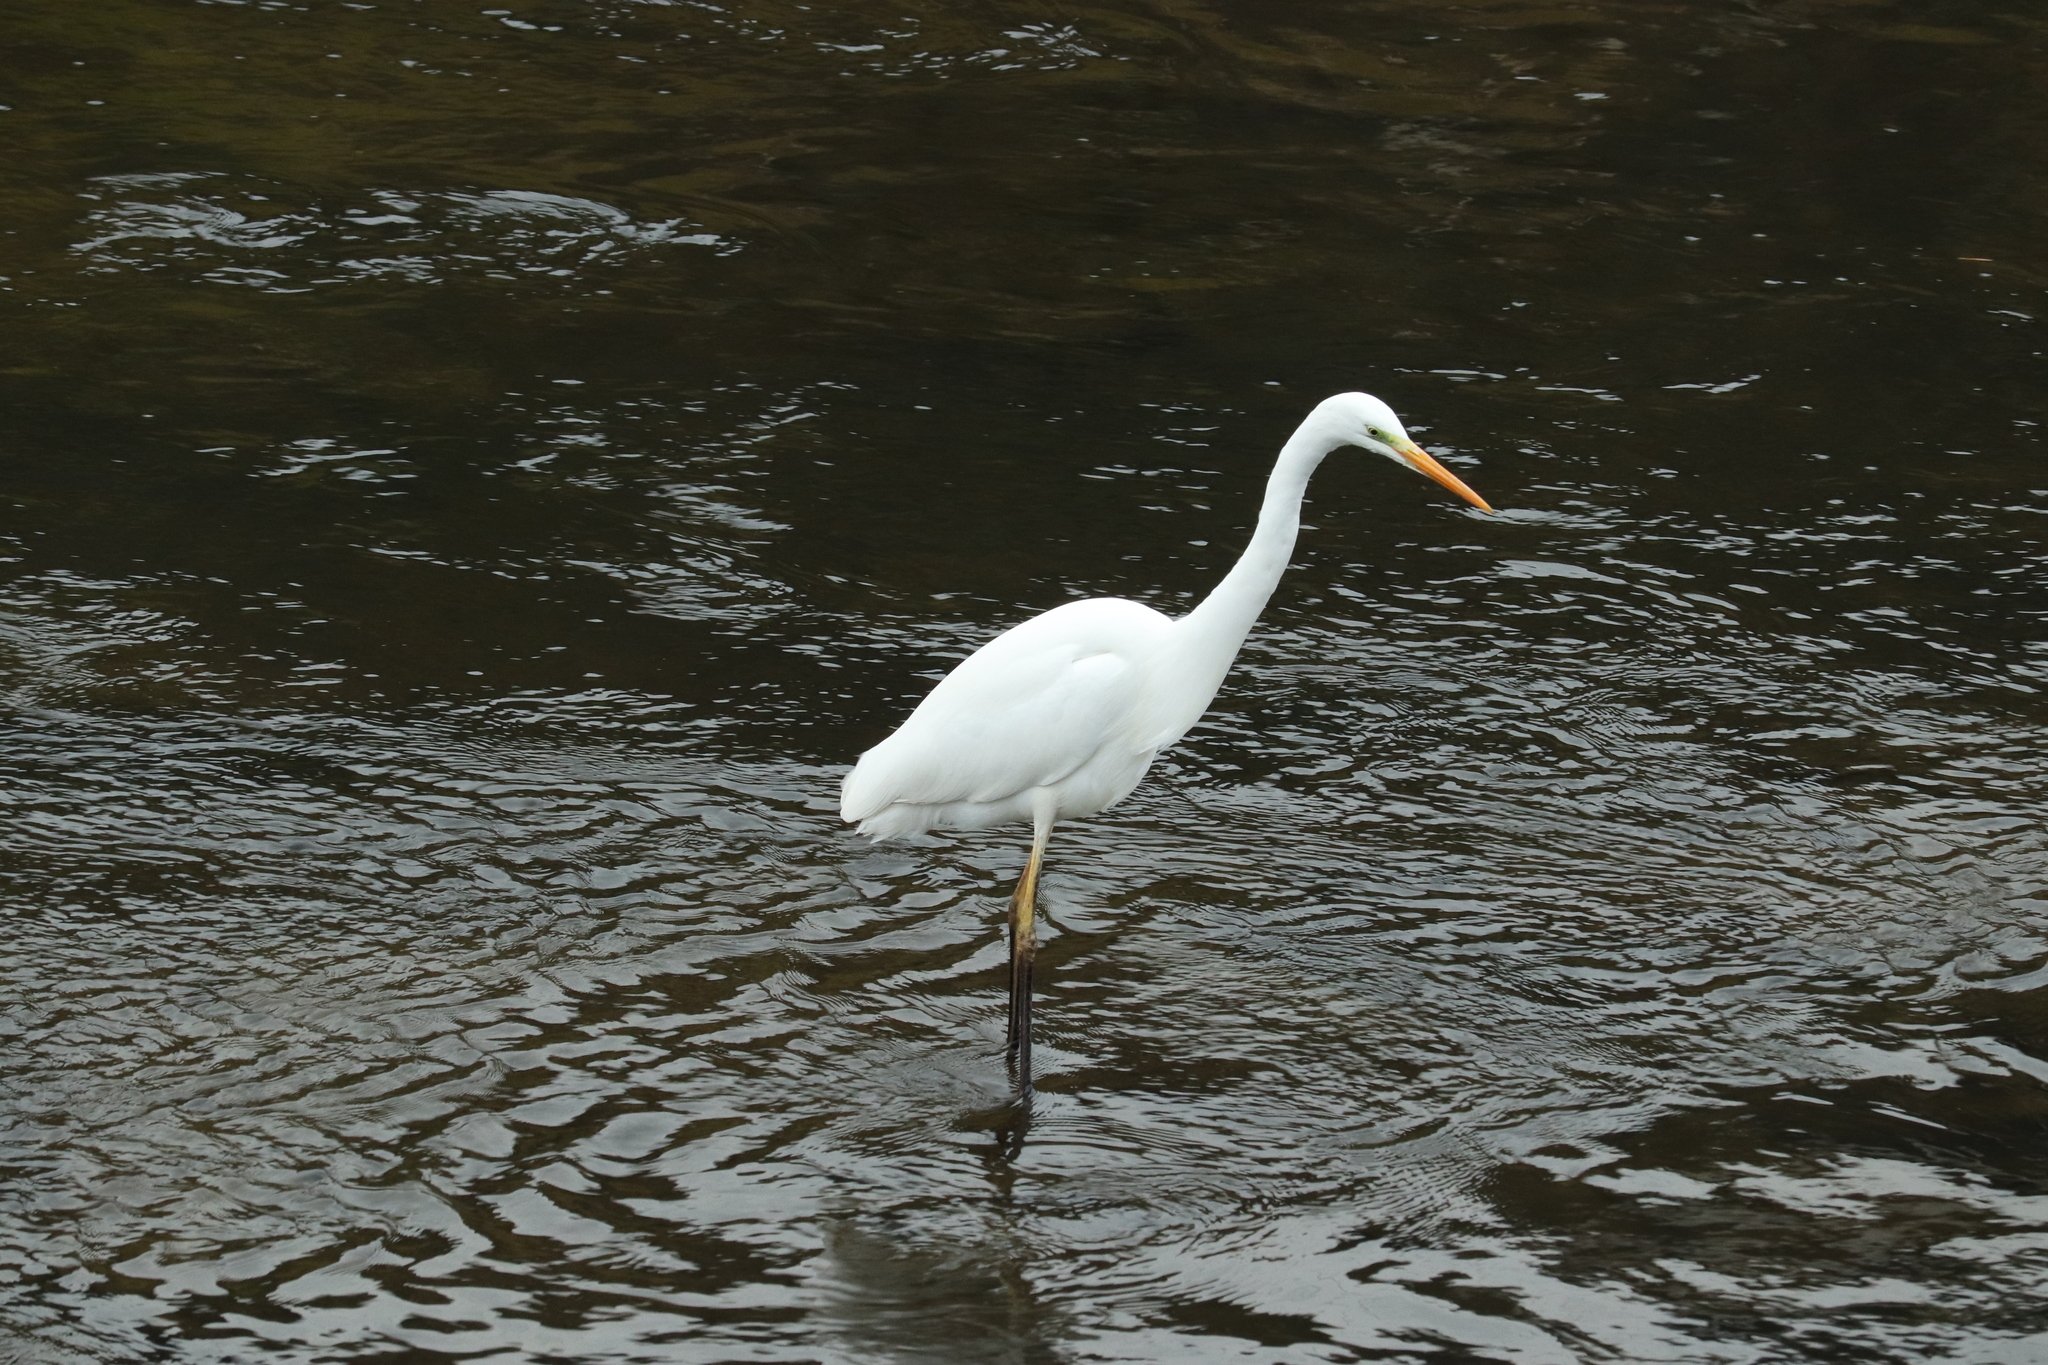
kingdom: Animalia
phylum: Chordata
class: Aves
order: Pelecaniformes
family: Ardeidae
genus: Ardea
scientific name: Ardea alba
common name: Great egret
